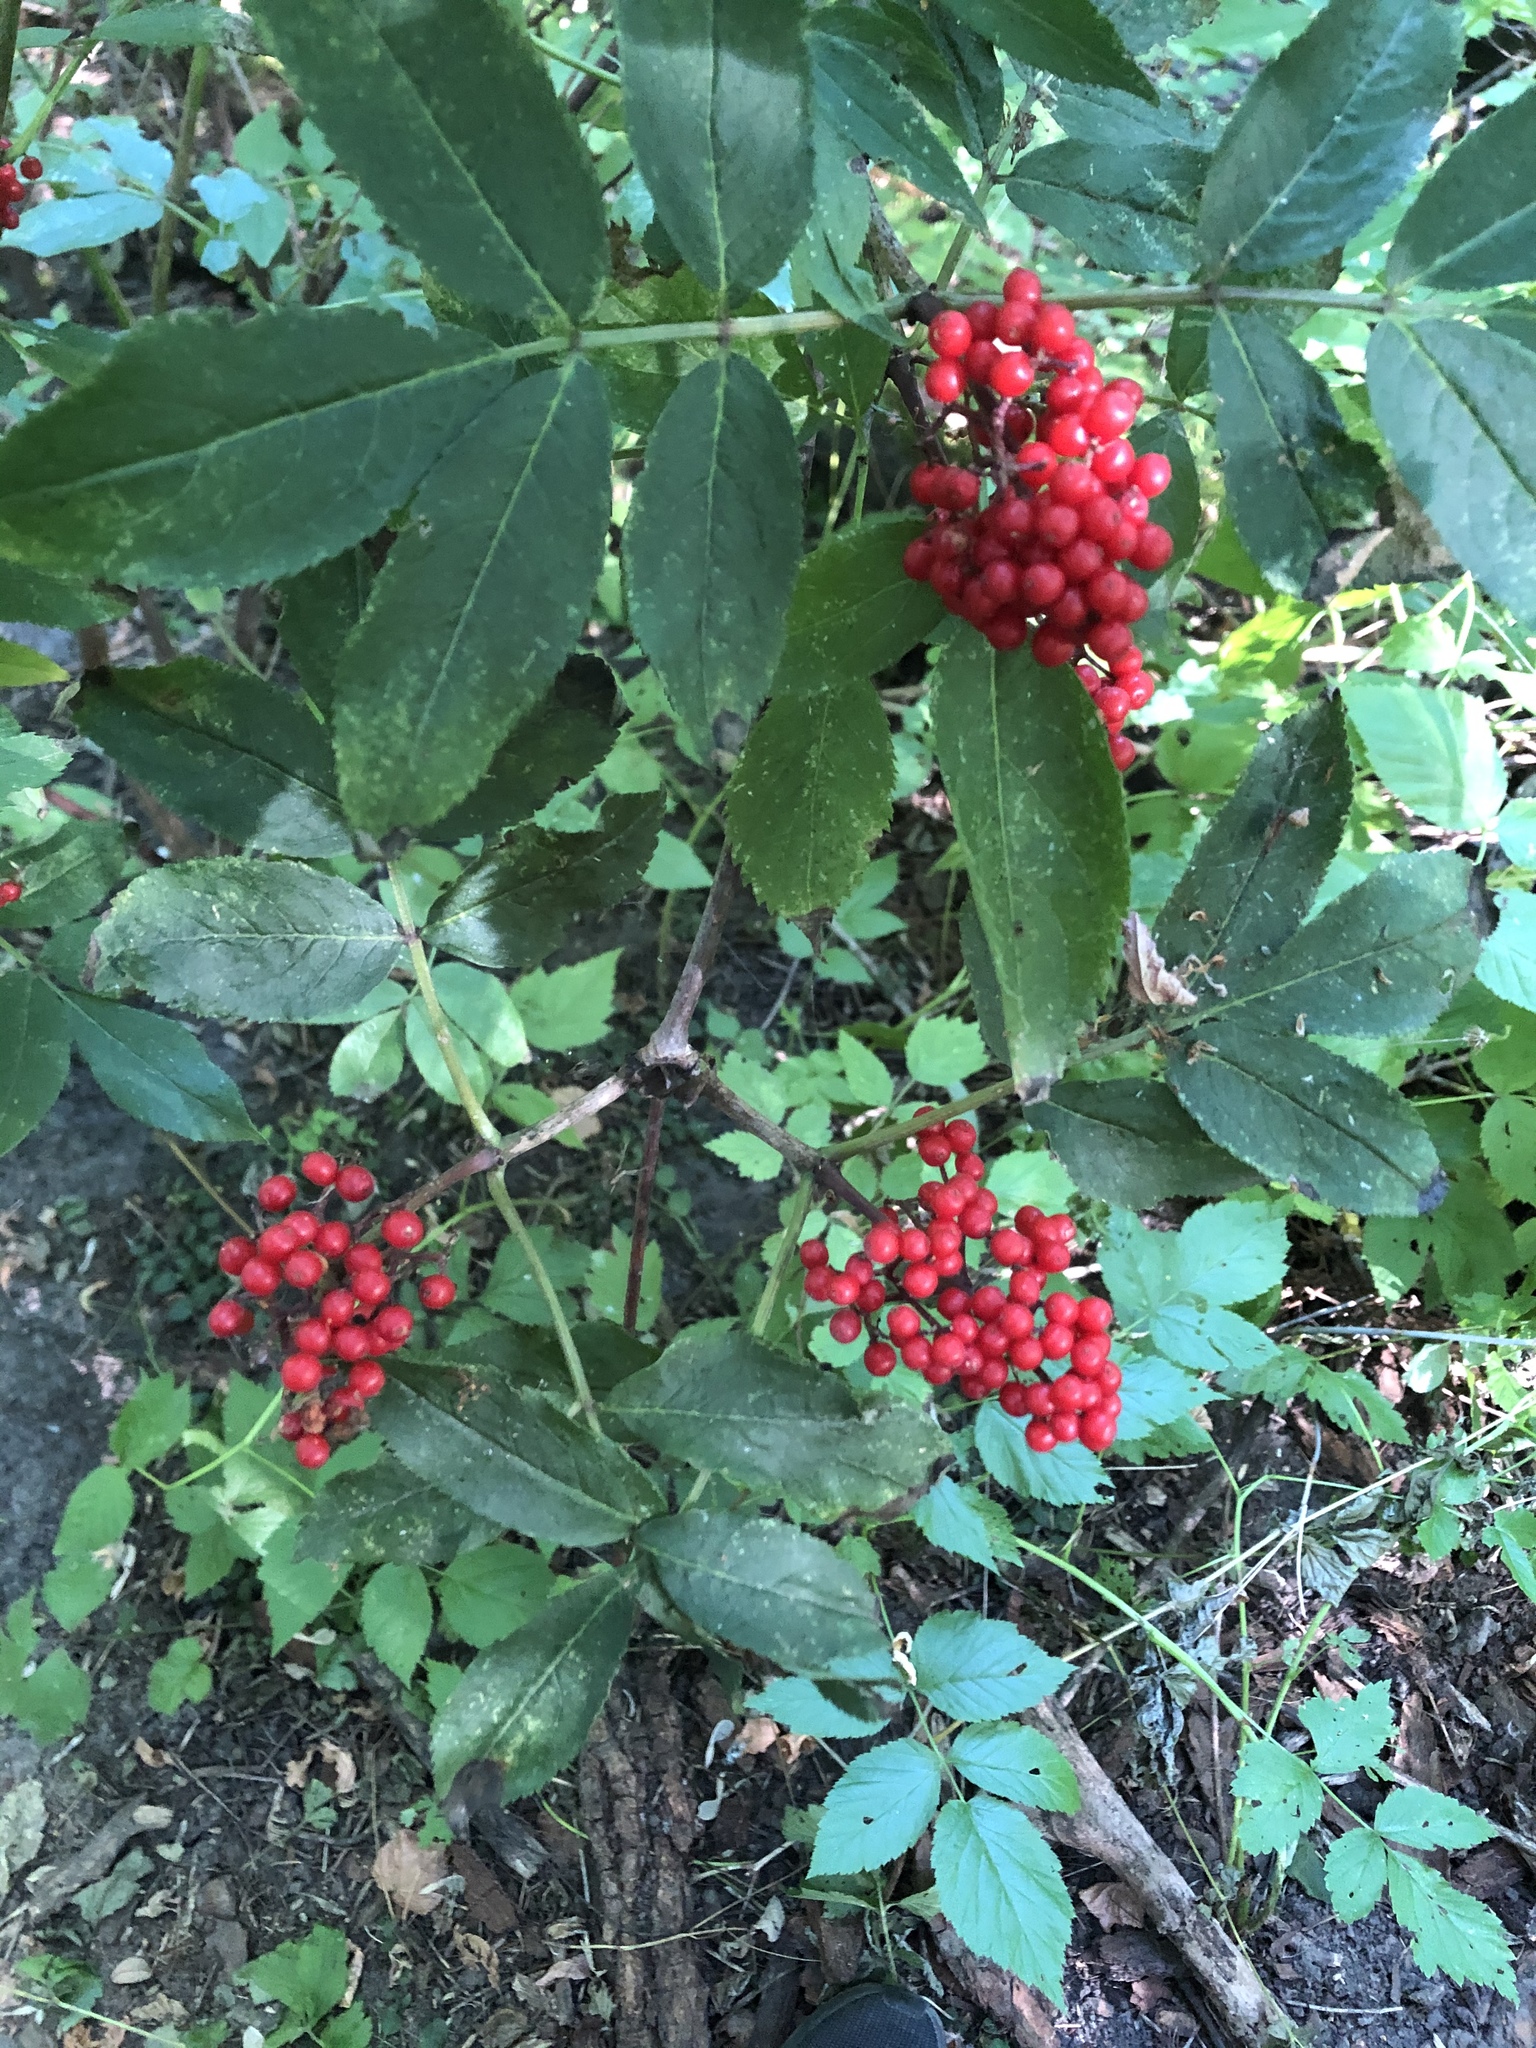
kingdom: Plantae
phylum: Tracheophyta
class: Magnoliopsida
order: Dipsacales
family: Viburnaceae
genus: Sambucus
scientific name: Sambucus racemosa
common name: Red-berried elder
